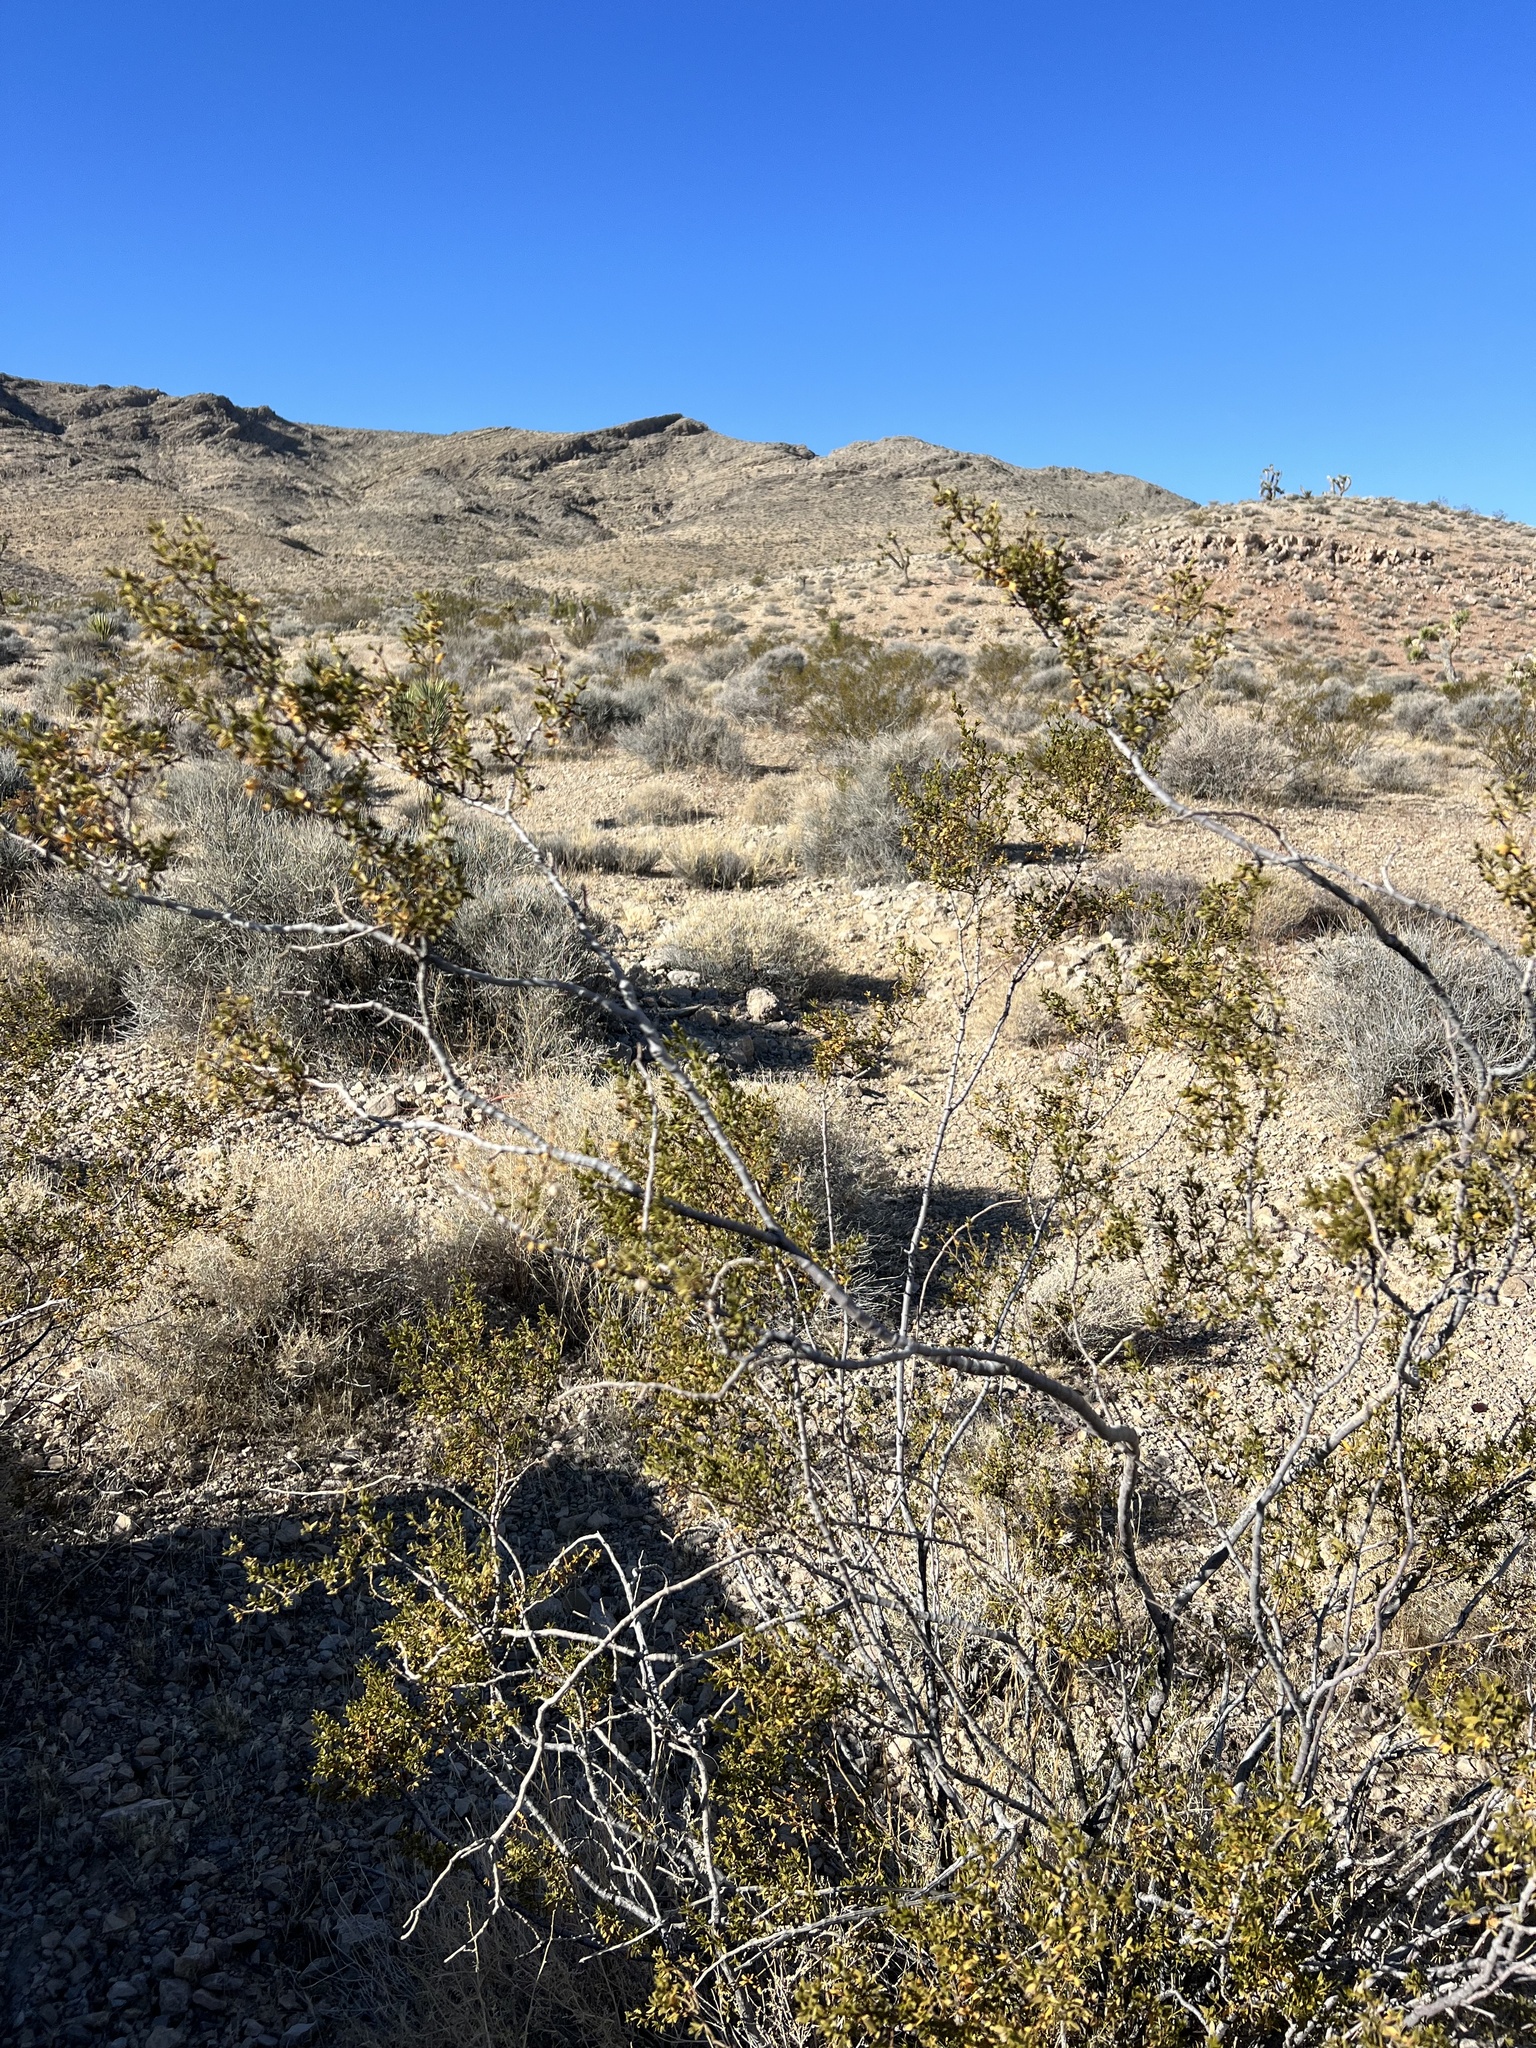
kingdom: Plantae
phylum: Tracheophyta
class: Magnoliopsida
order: Zygophyllales
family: Zygophyllaceae
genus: Larrea
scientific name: Larrea tridentata
